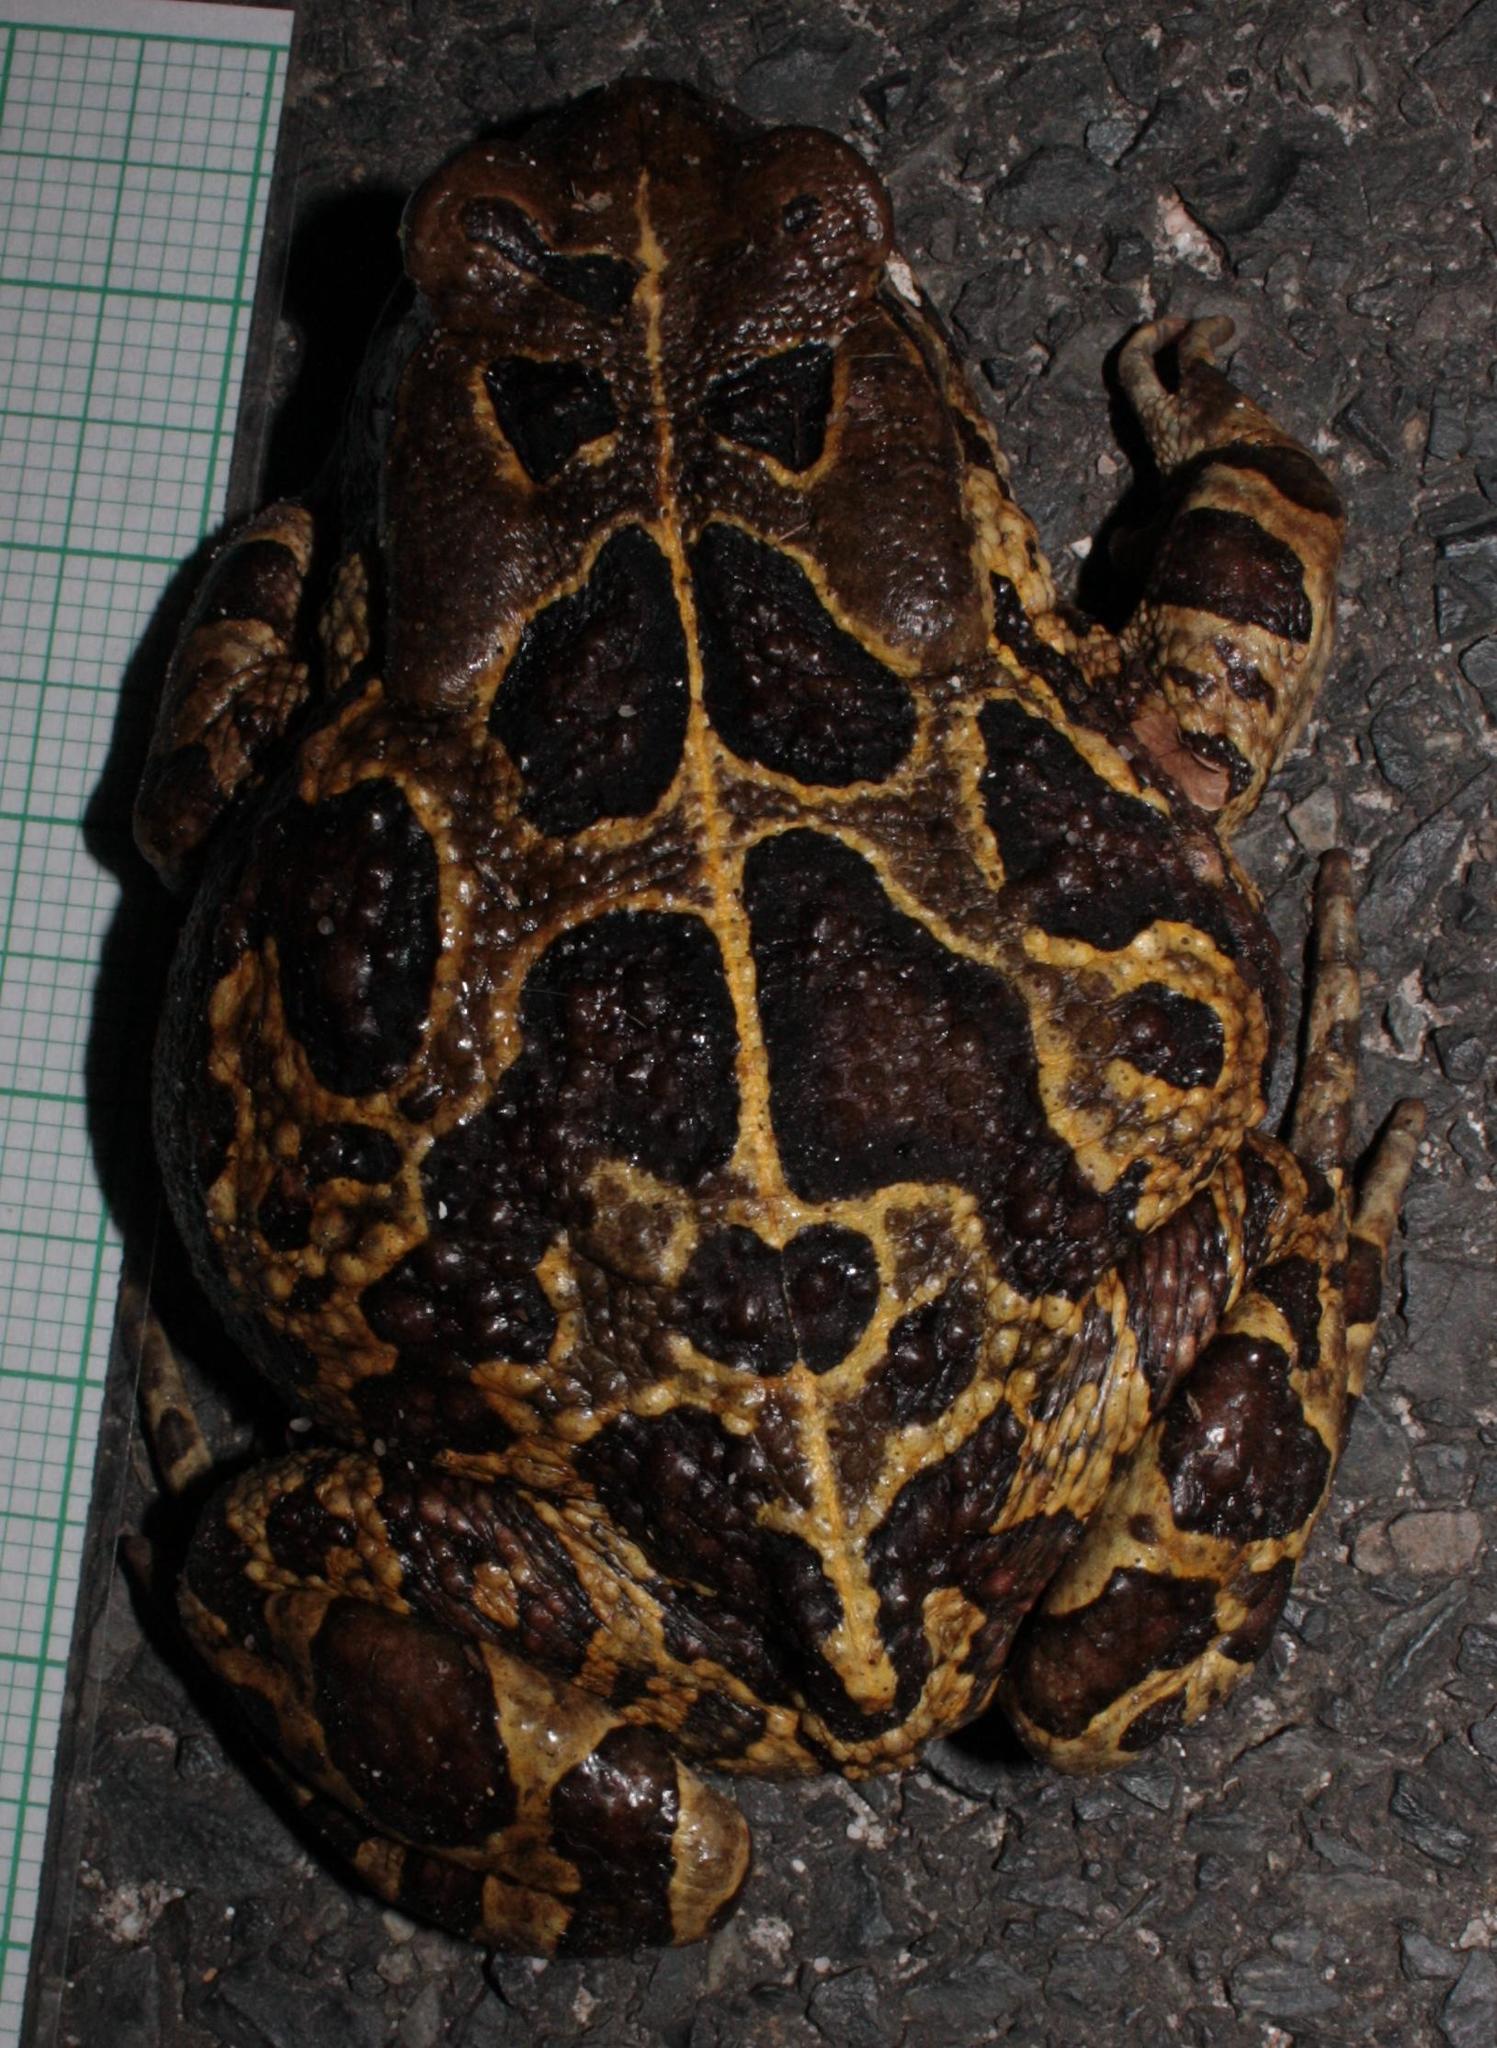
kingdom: Animalia
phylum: Chordata
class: Amphibia
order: Anura
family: Bufonidae
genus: Sclerophrys
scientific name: Sclerophrys pantherina
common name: Panther toad
